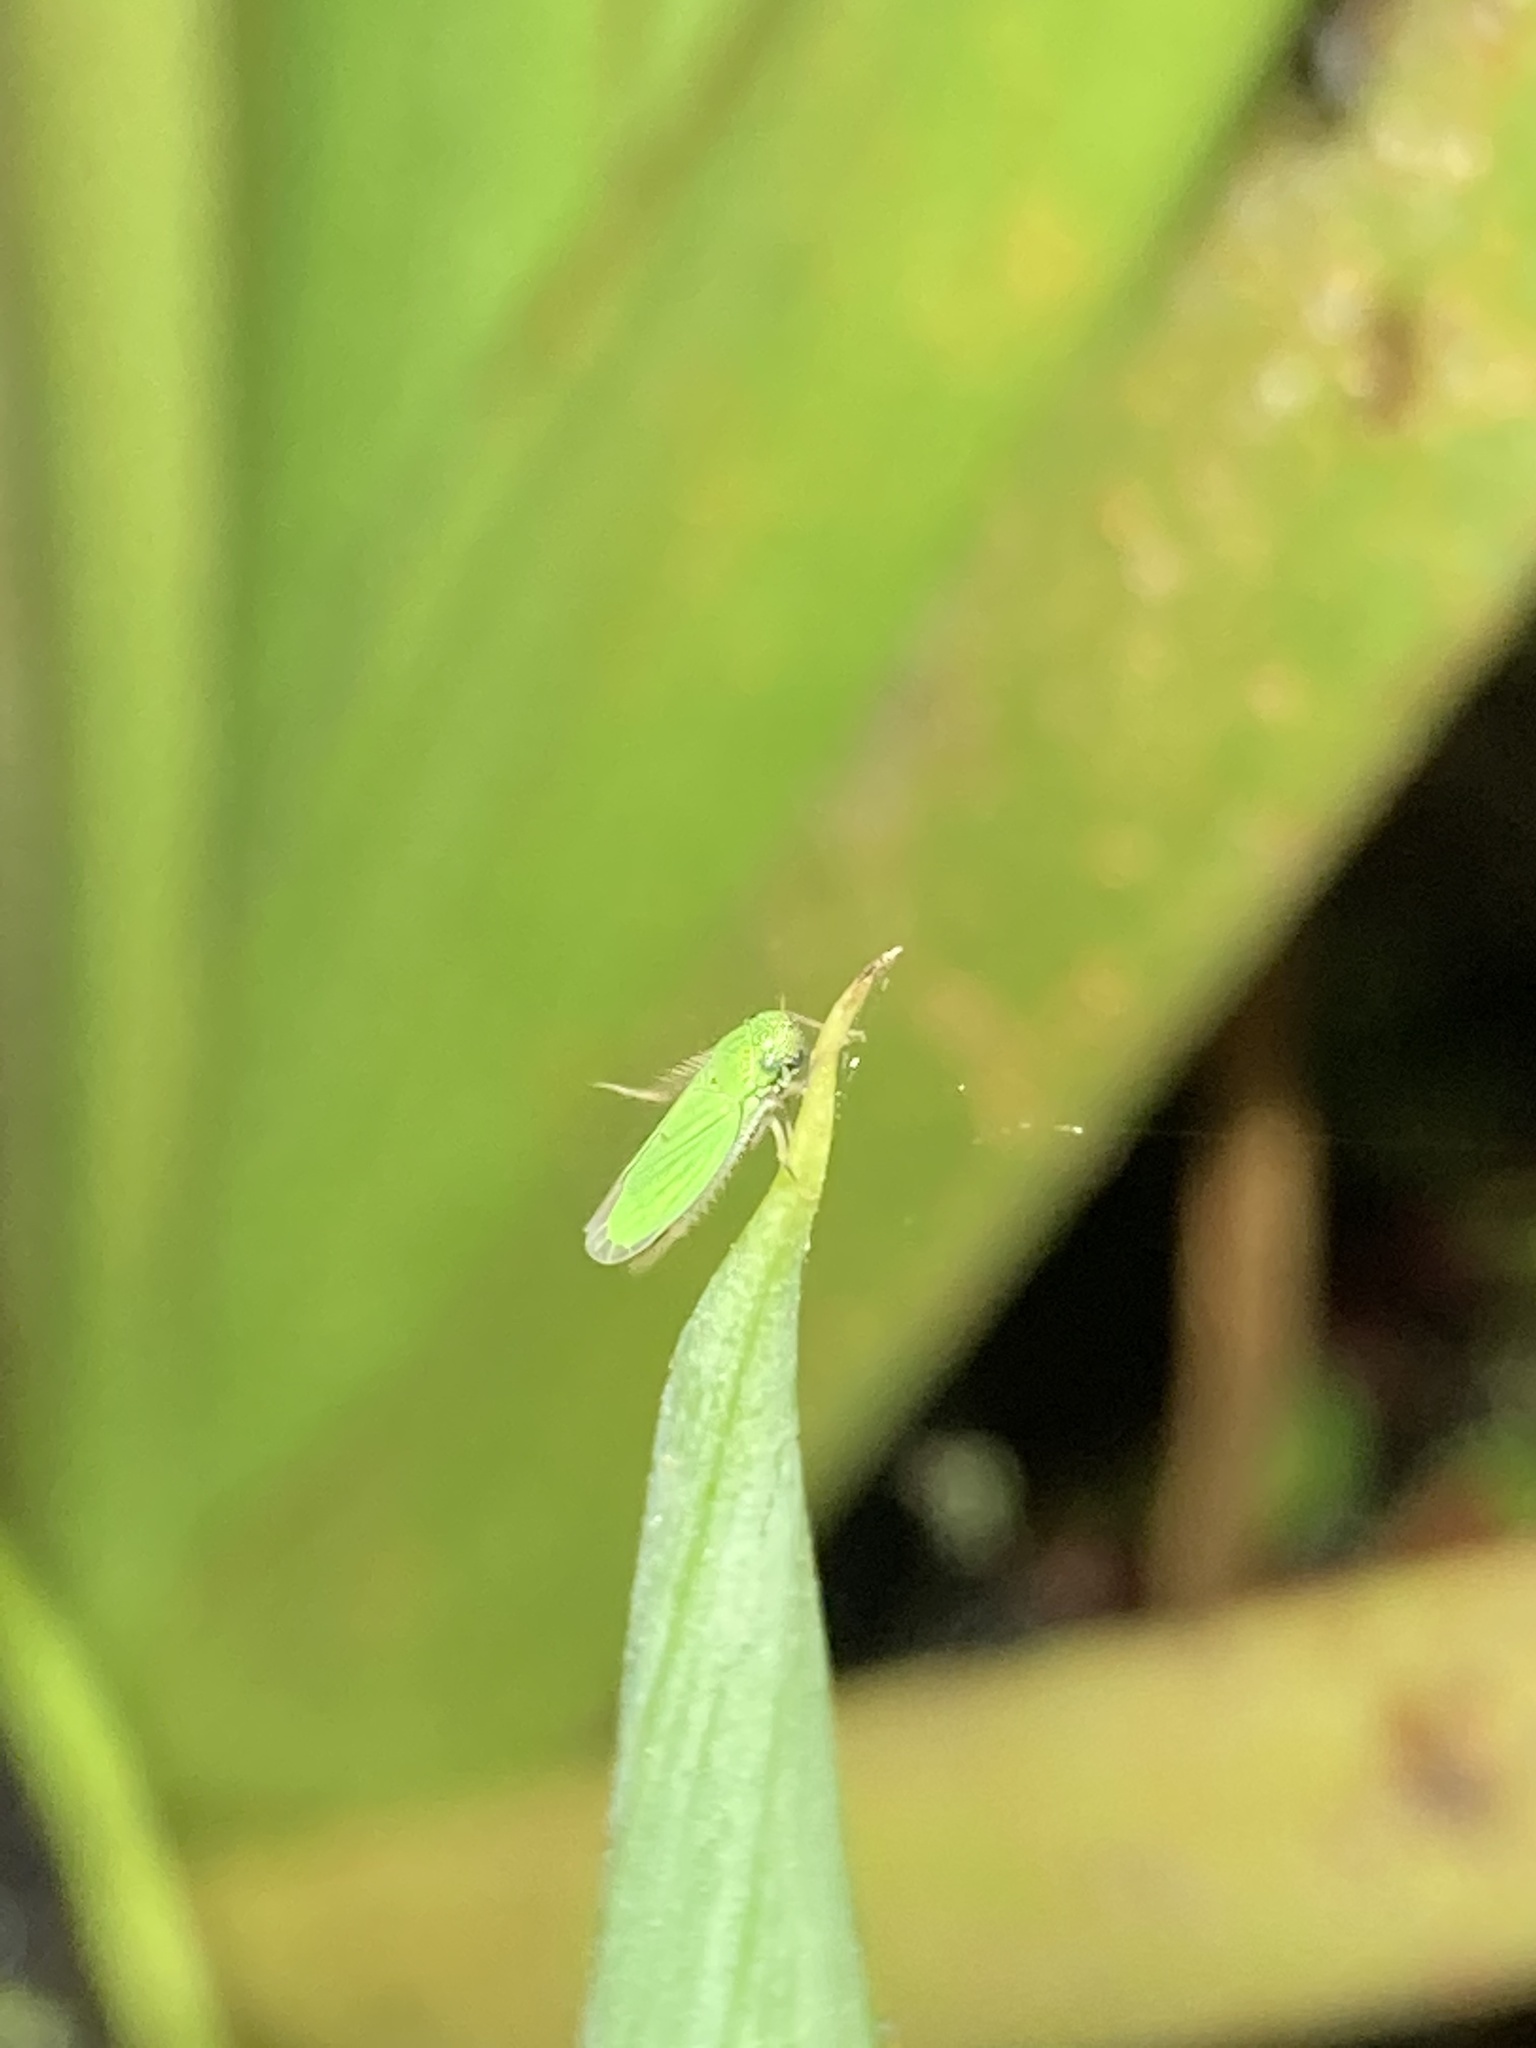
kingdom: Animalia
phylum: Arthropoda
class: Insecta
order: Hemiptera
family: Cicadellidae
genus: Hortensia
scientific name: Hortensia similis
